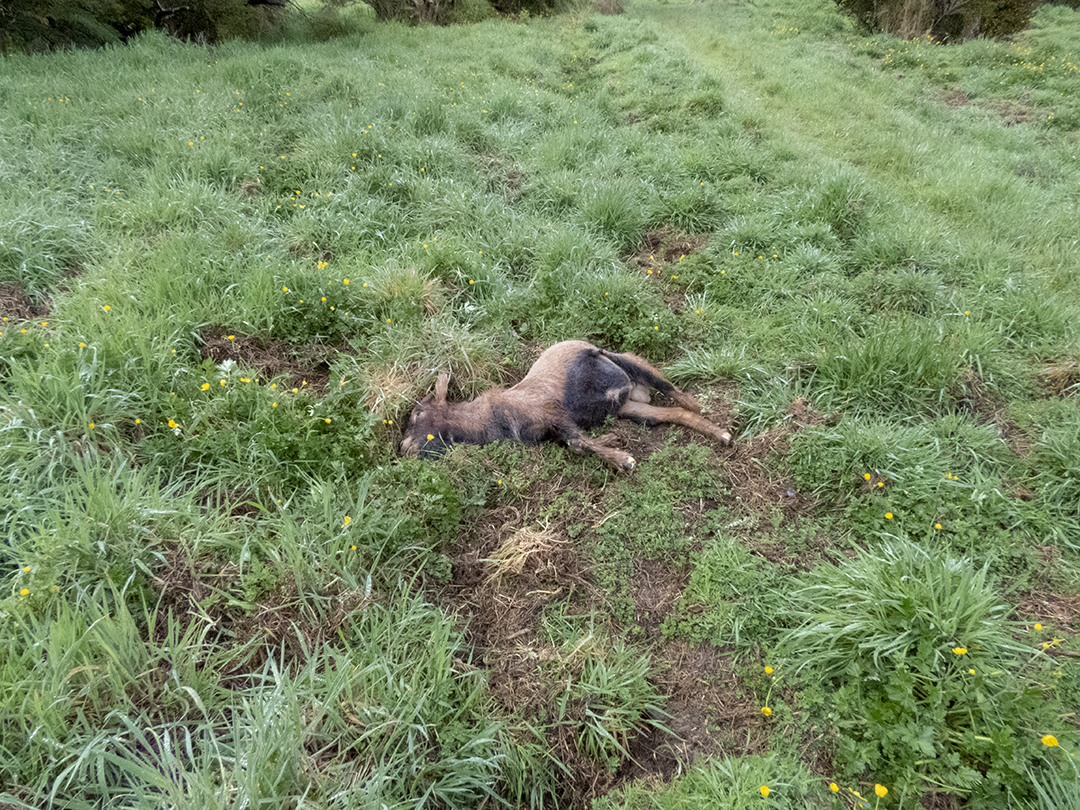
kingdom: Animalia
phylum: Chordata
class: Mammalia
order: Artiodactyla
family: Bovidae
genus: Capra
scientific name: Capra hircus
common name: Domestic goat
